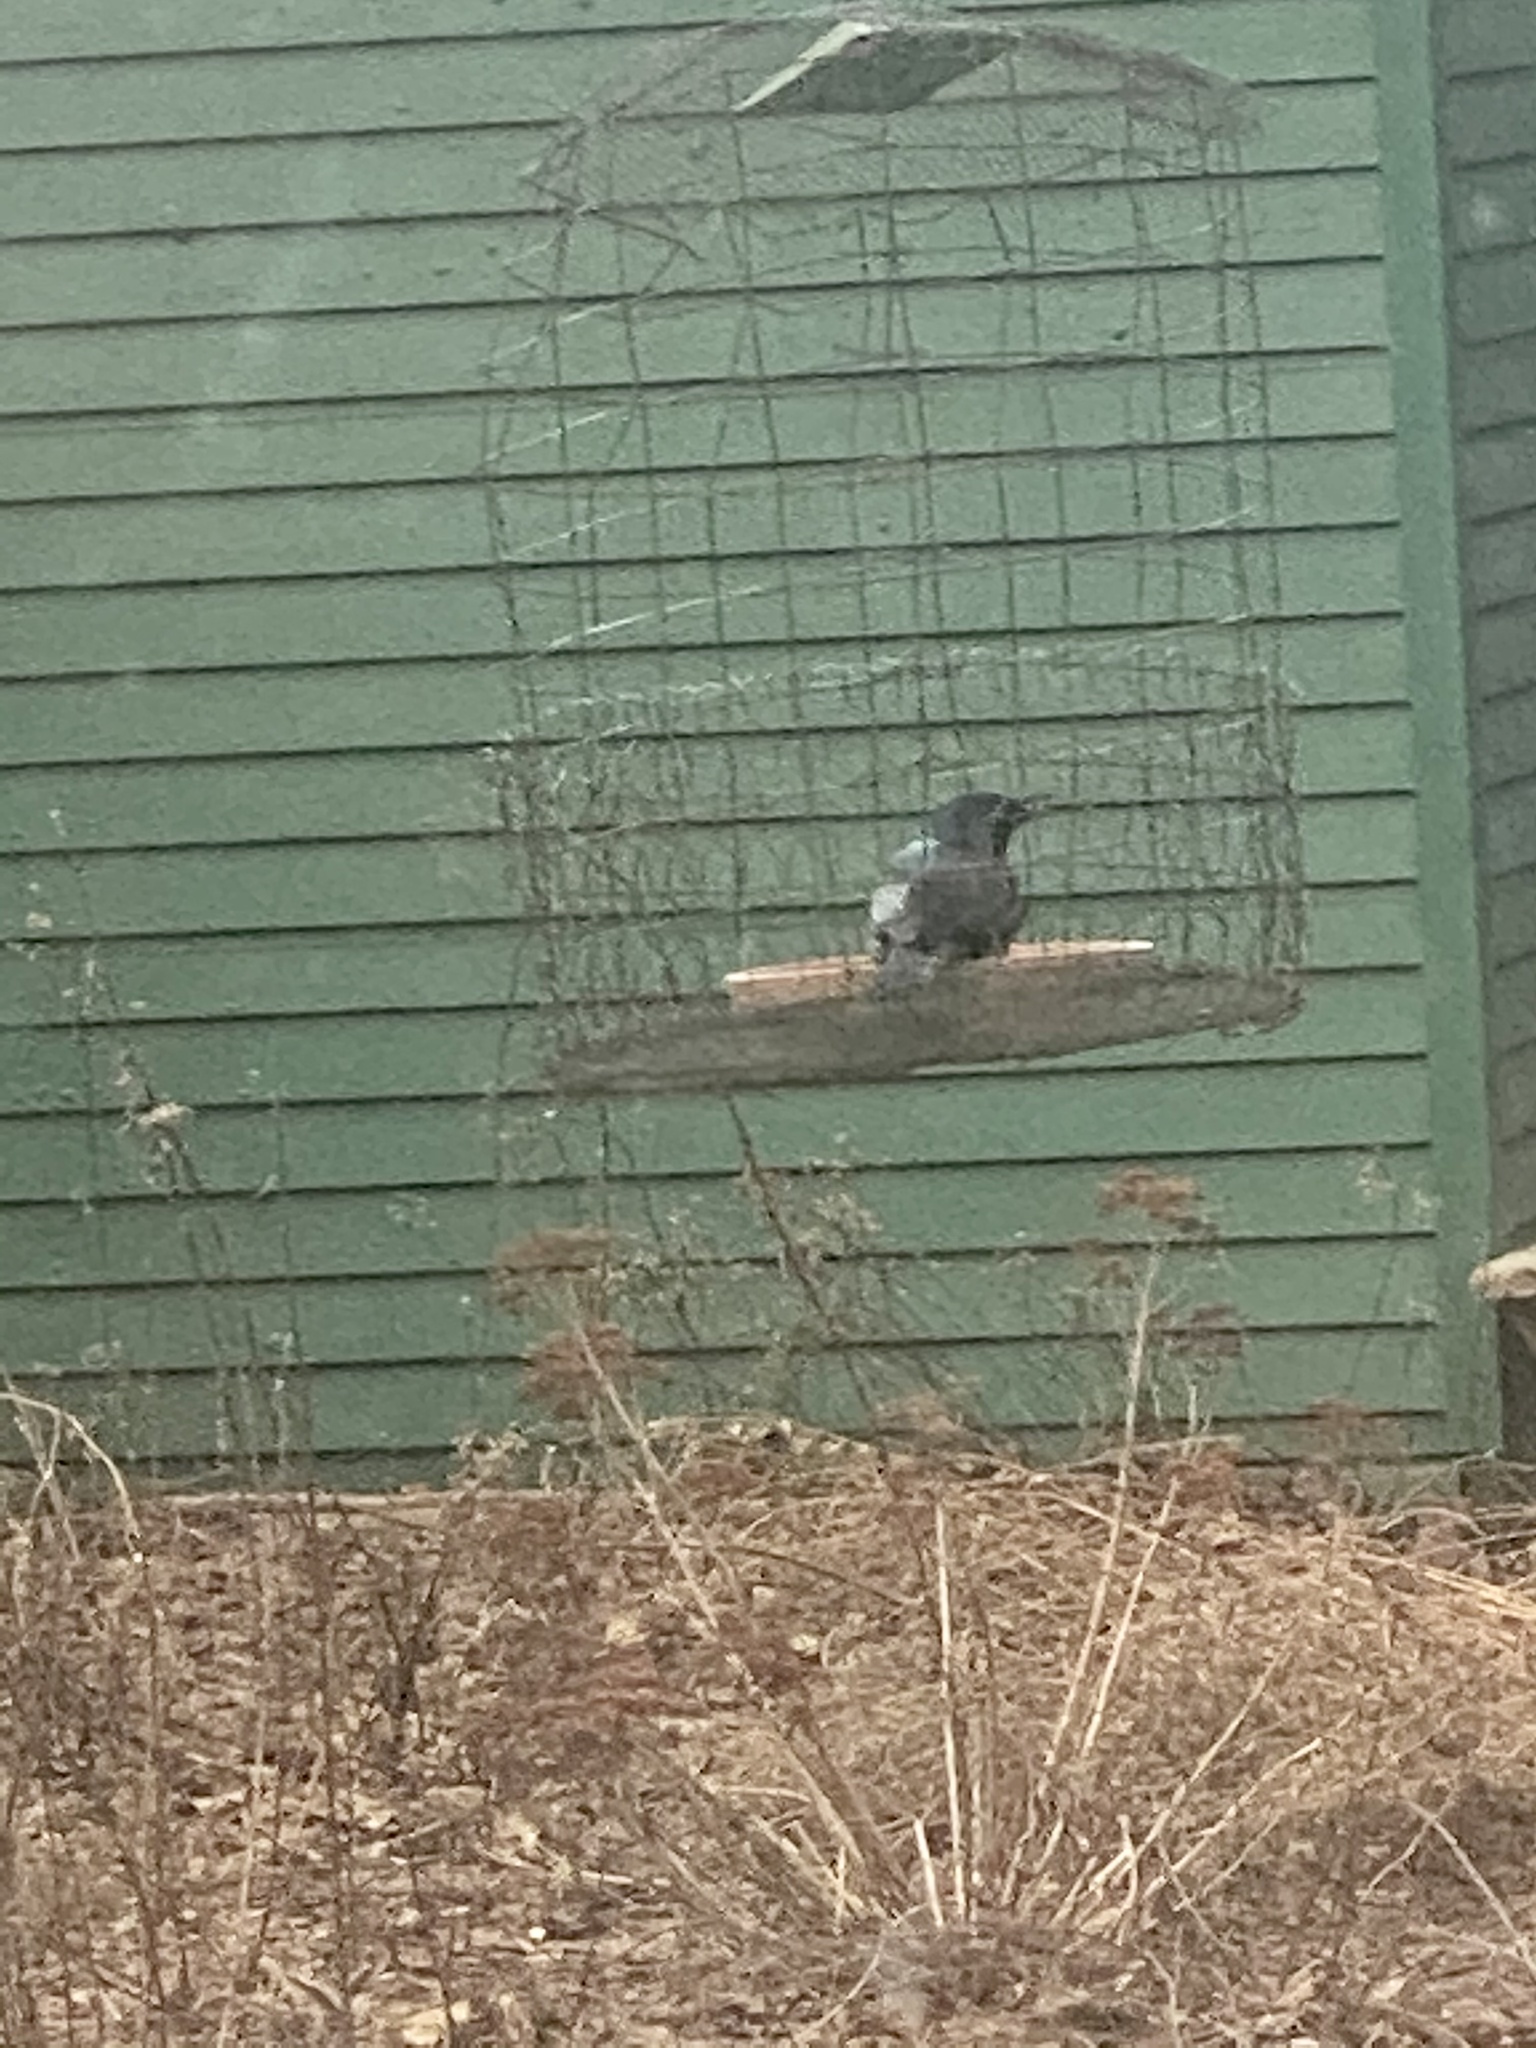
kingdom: Animalia
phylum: Chordata
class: Aves
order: Passeriformes
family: Icteridae
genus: Quiscalus
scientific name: Quiscalus quiscula
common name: Common grackle
